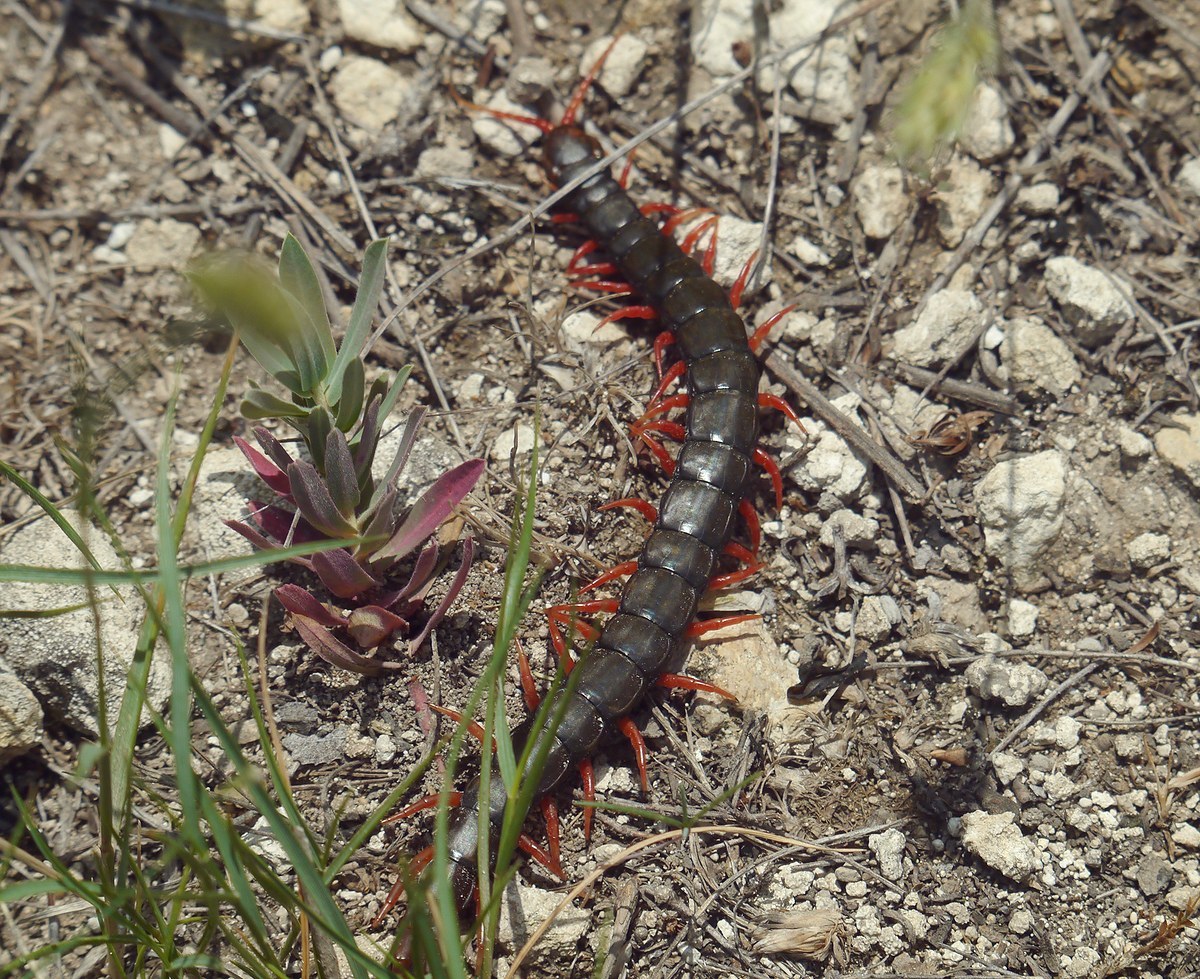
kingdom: Animalia
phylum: Arthropoda
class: Chilopoda
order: Scolopendromorpha
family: Scolopendridae
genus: Scolopendra
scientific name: Scolopendra cingulata
